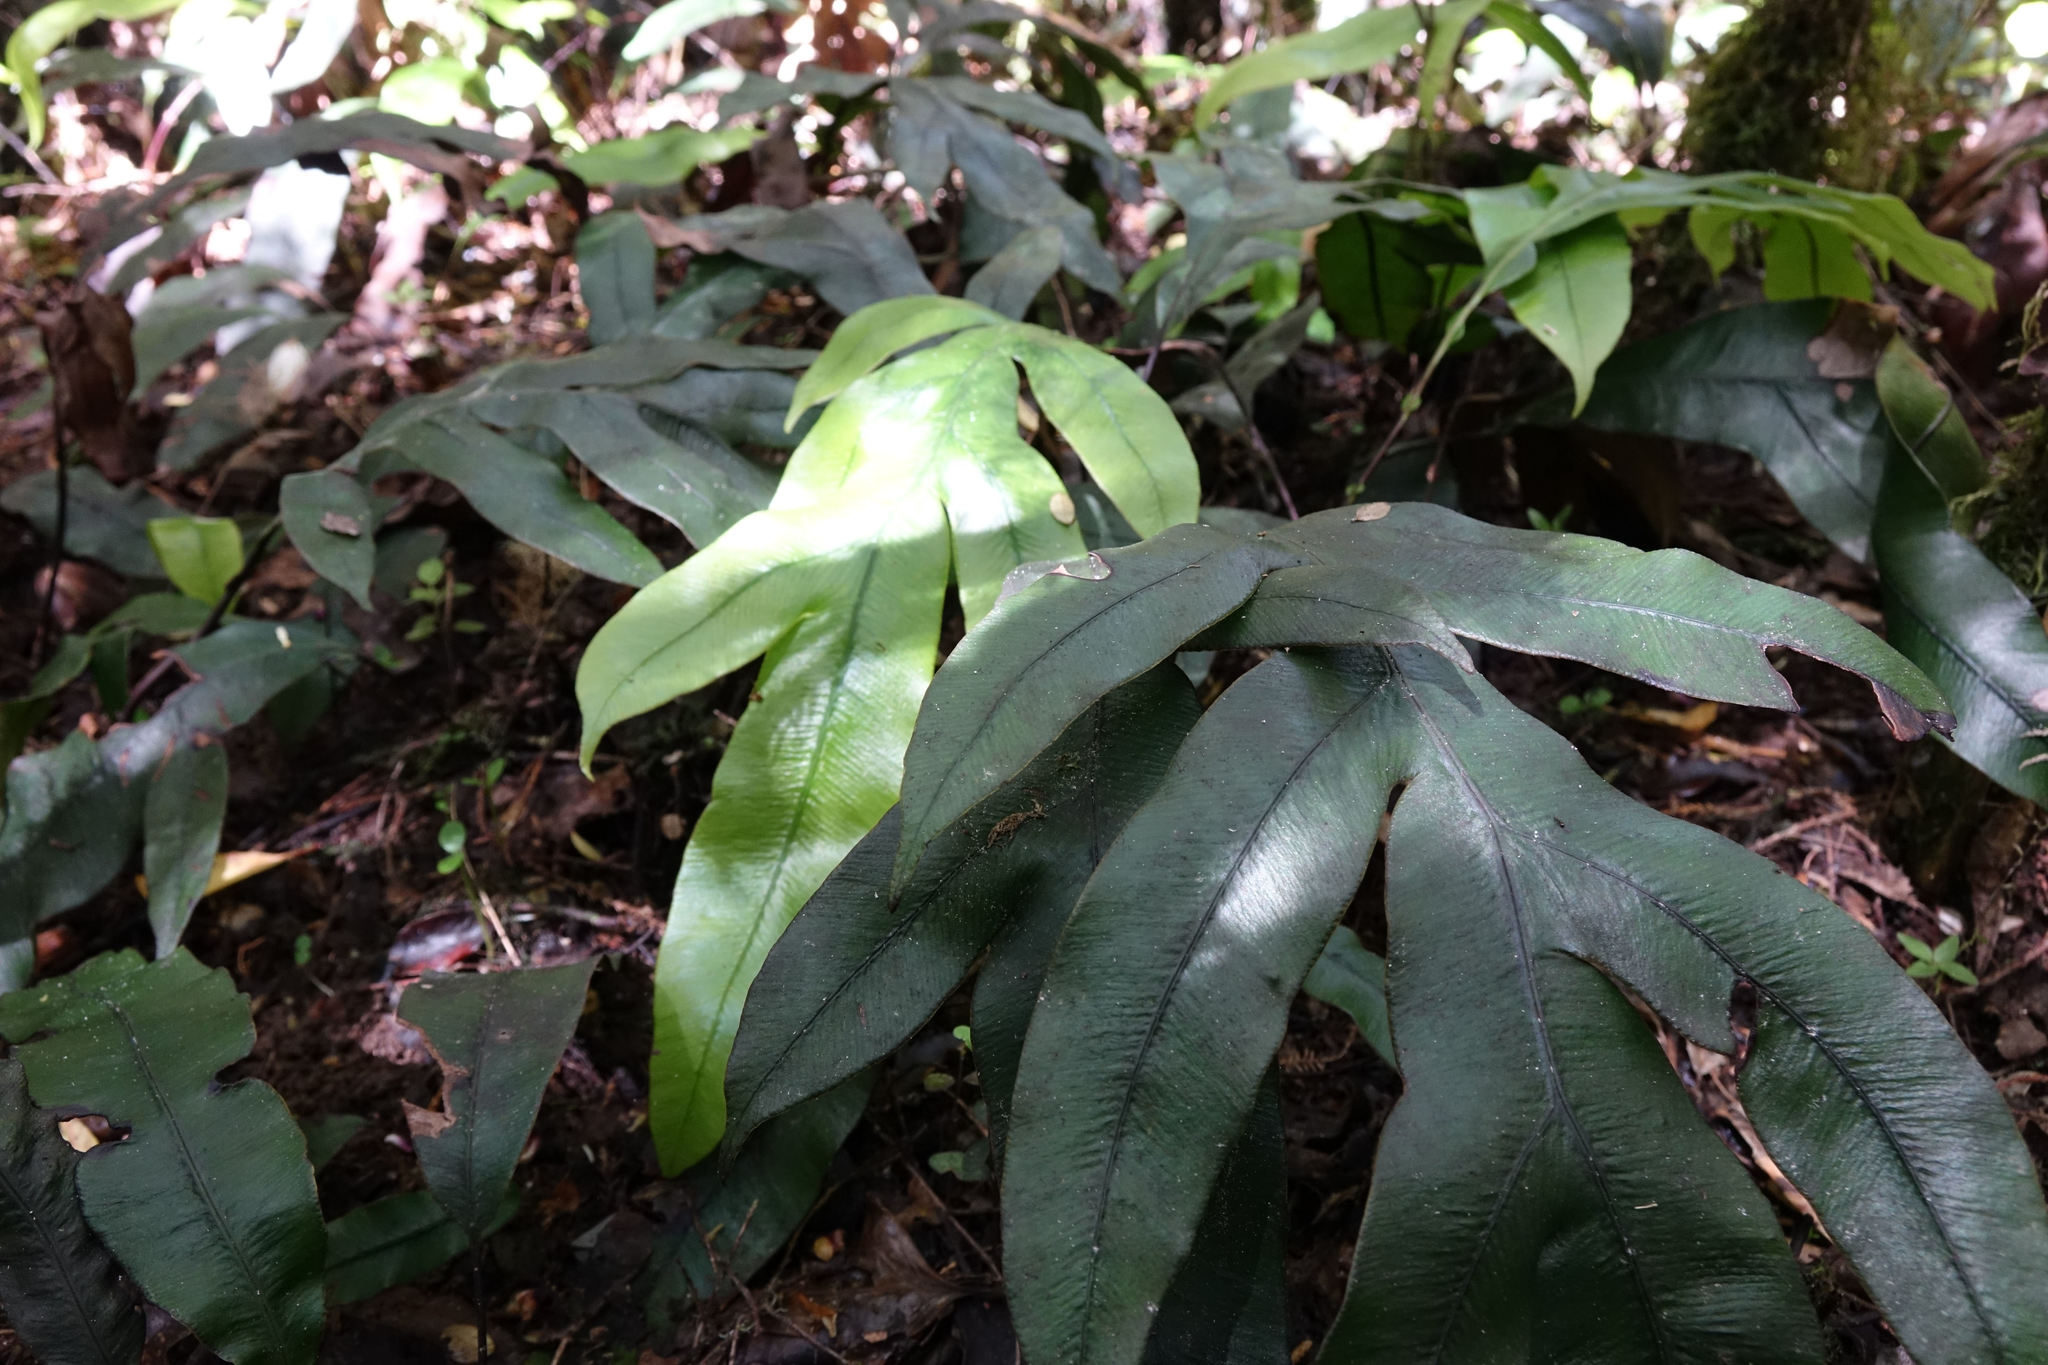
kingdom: Plantae
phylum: Tracheophyta
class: Polypodiopsida
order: Polypodiales
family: Blechnaceae
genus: Austroblechnum
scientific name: Austroblechnum colensoi
